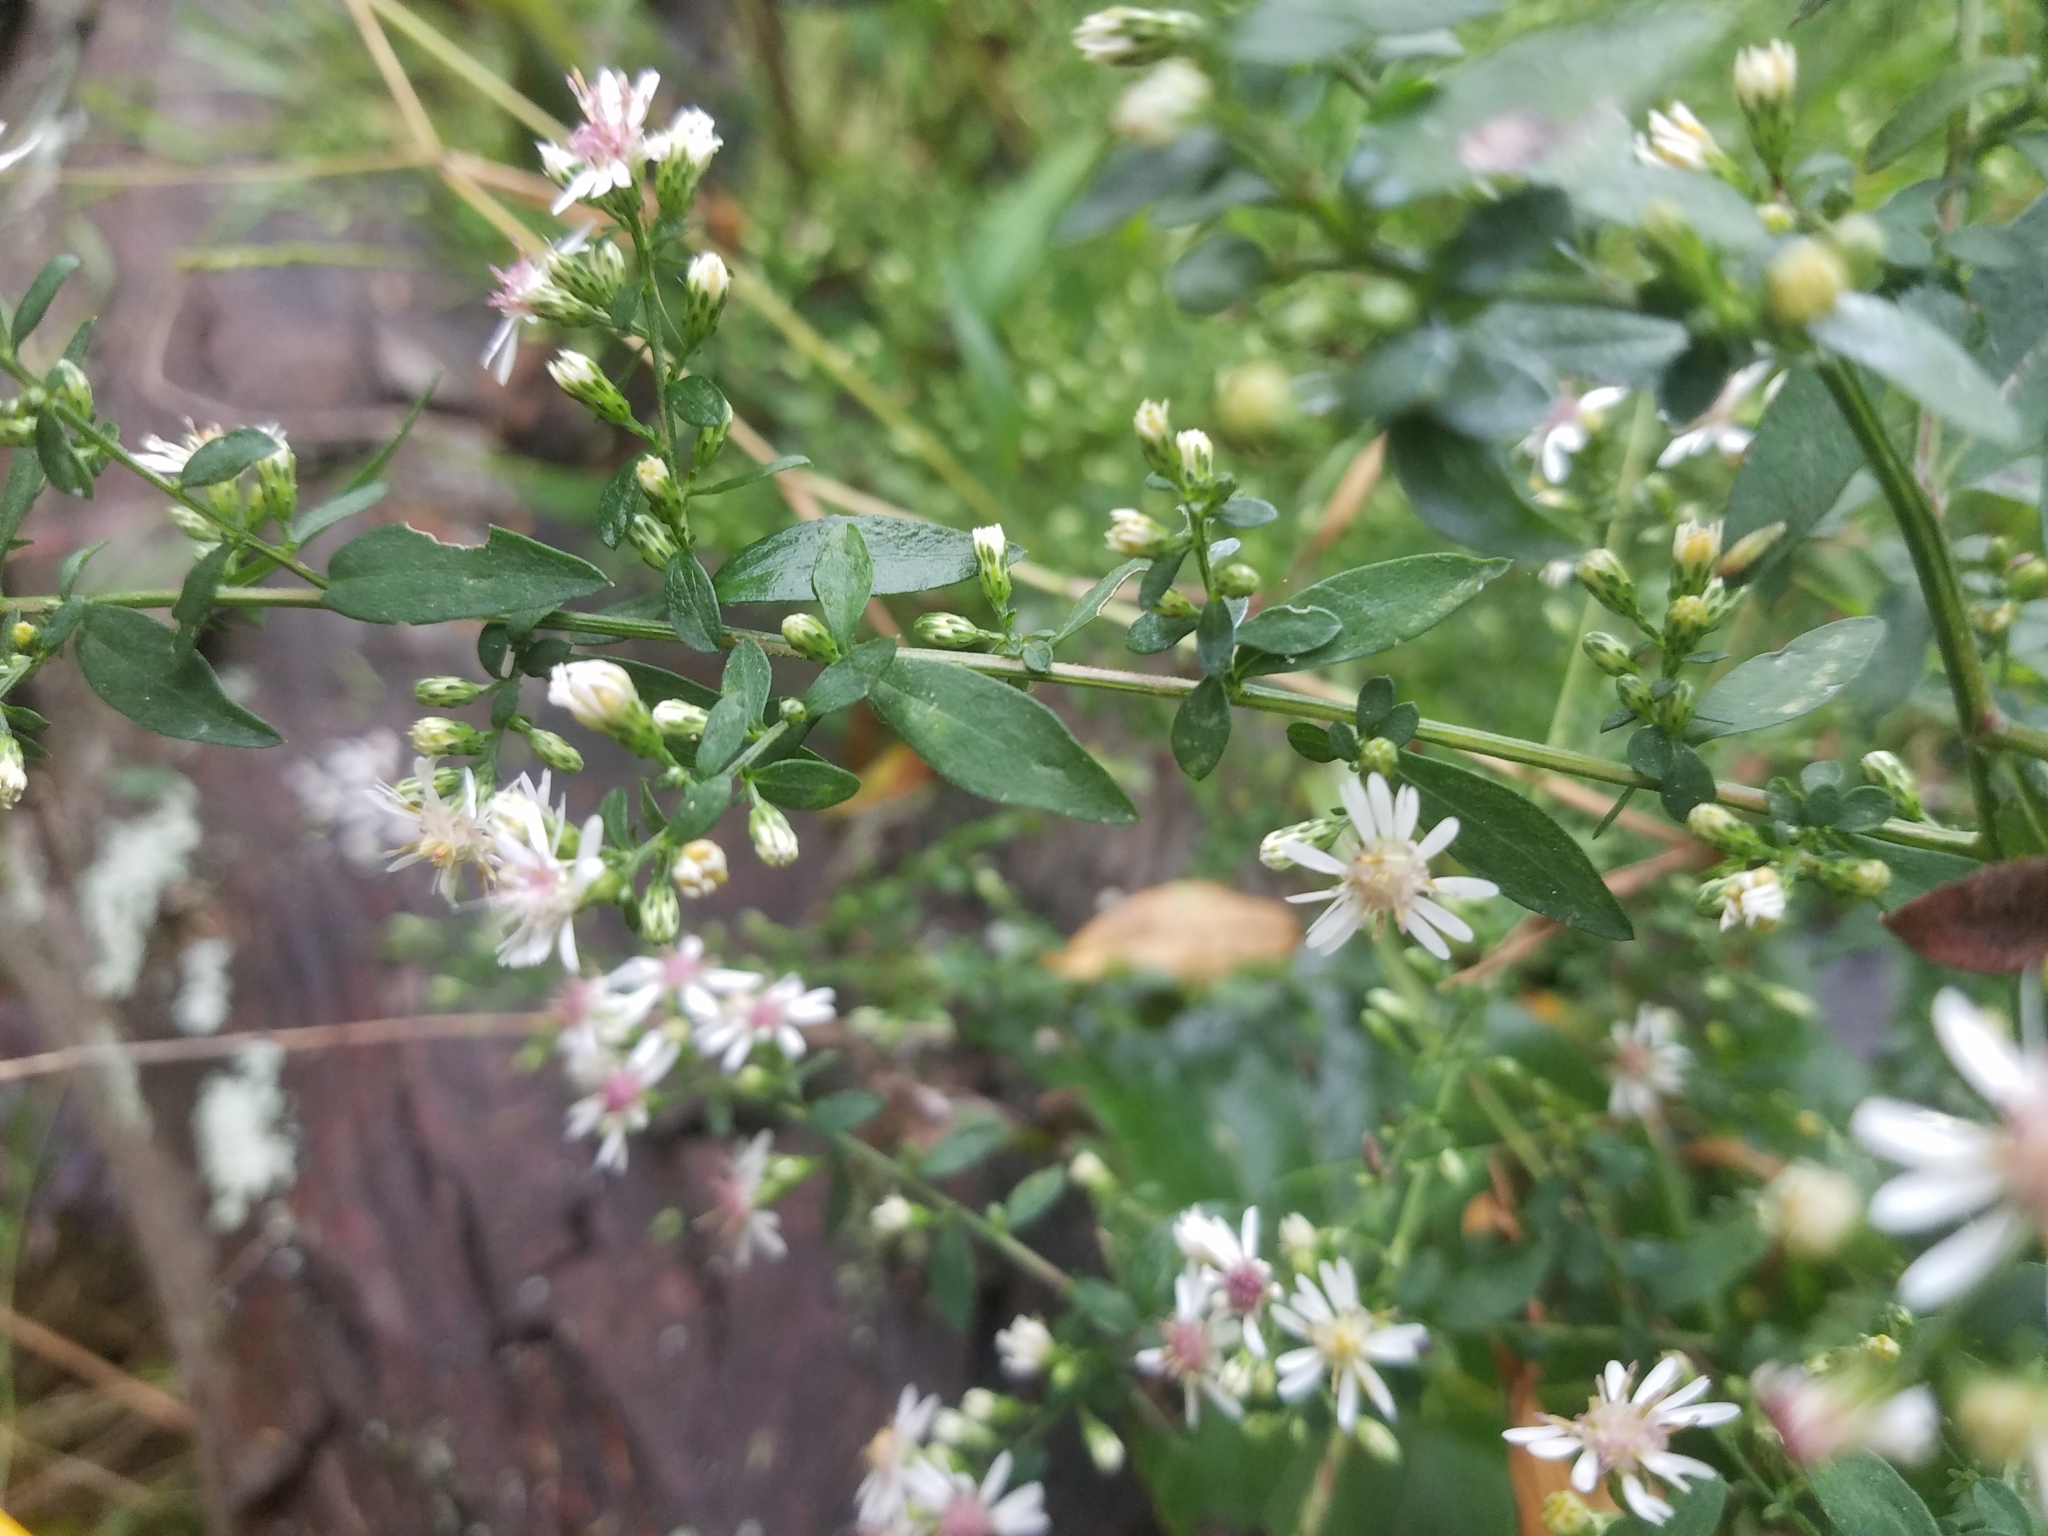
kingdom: Plantae
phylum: Tracheophyta
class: Magnoliopsida
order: Asterales
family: Asteraceae
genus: Symphyotrichum
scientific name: Symphyotrichum lateriflorum
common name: Calico aster
